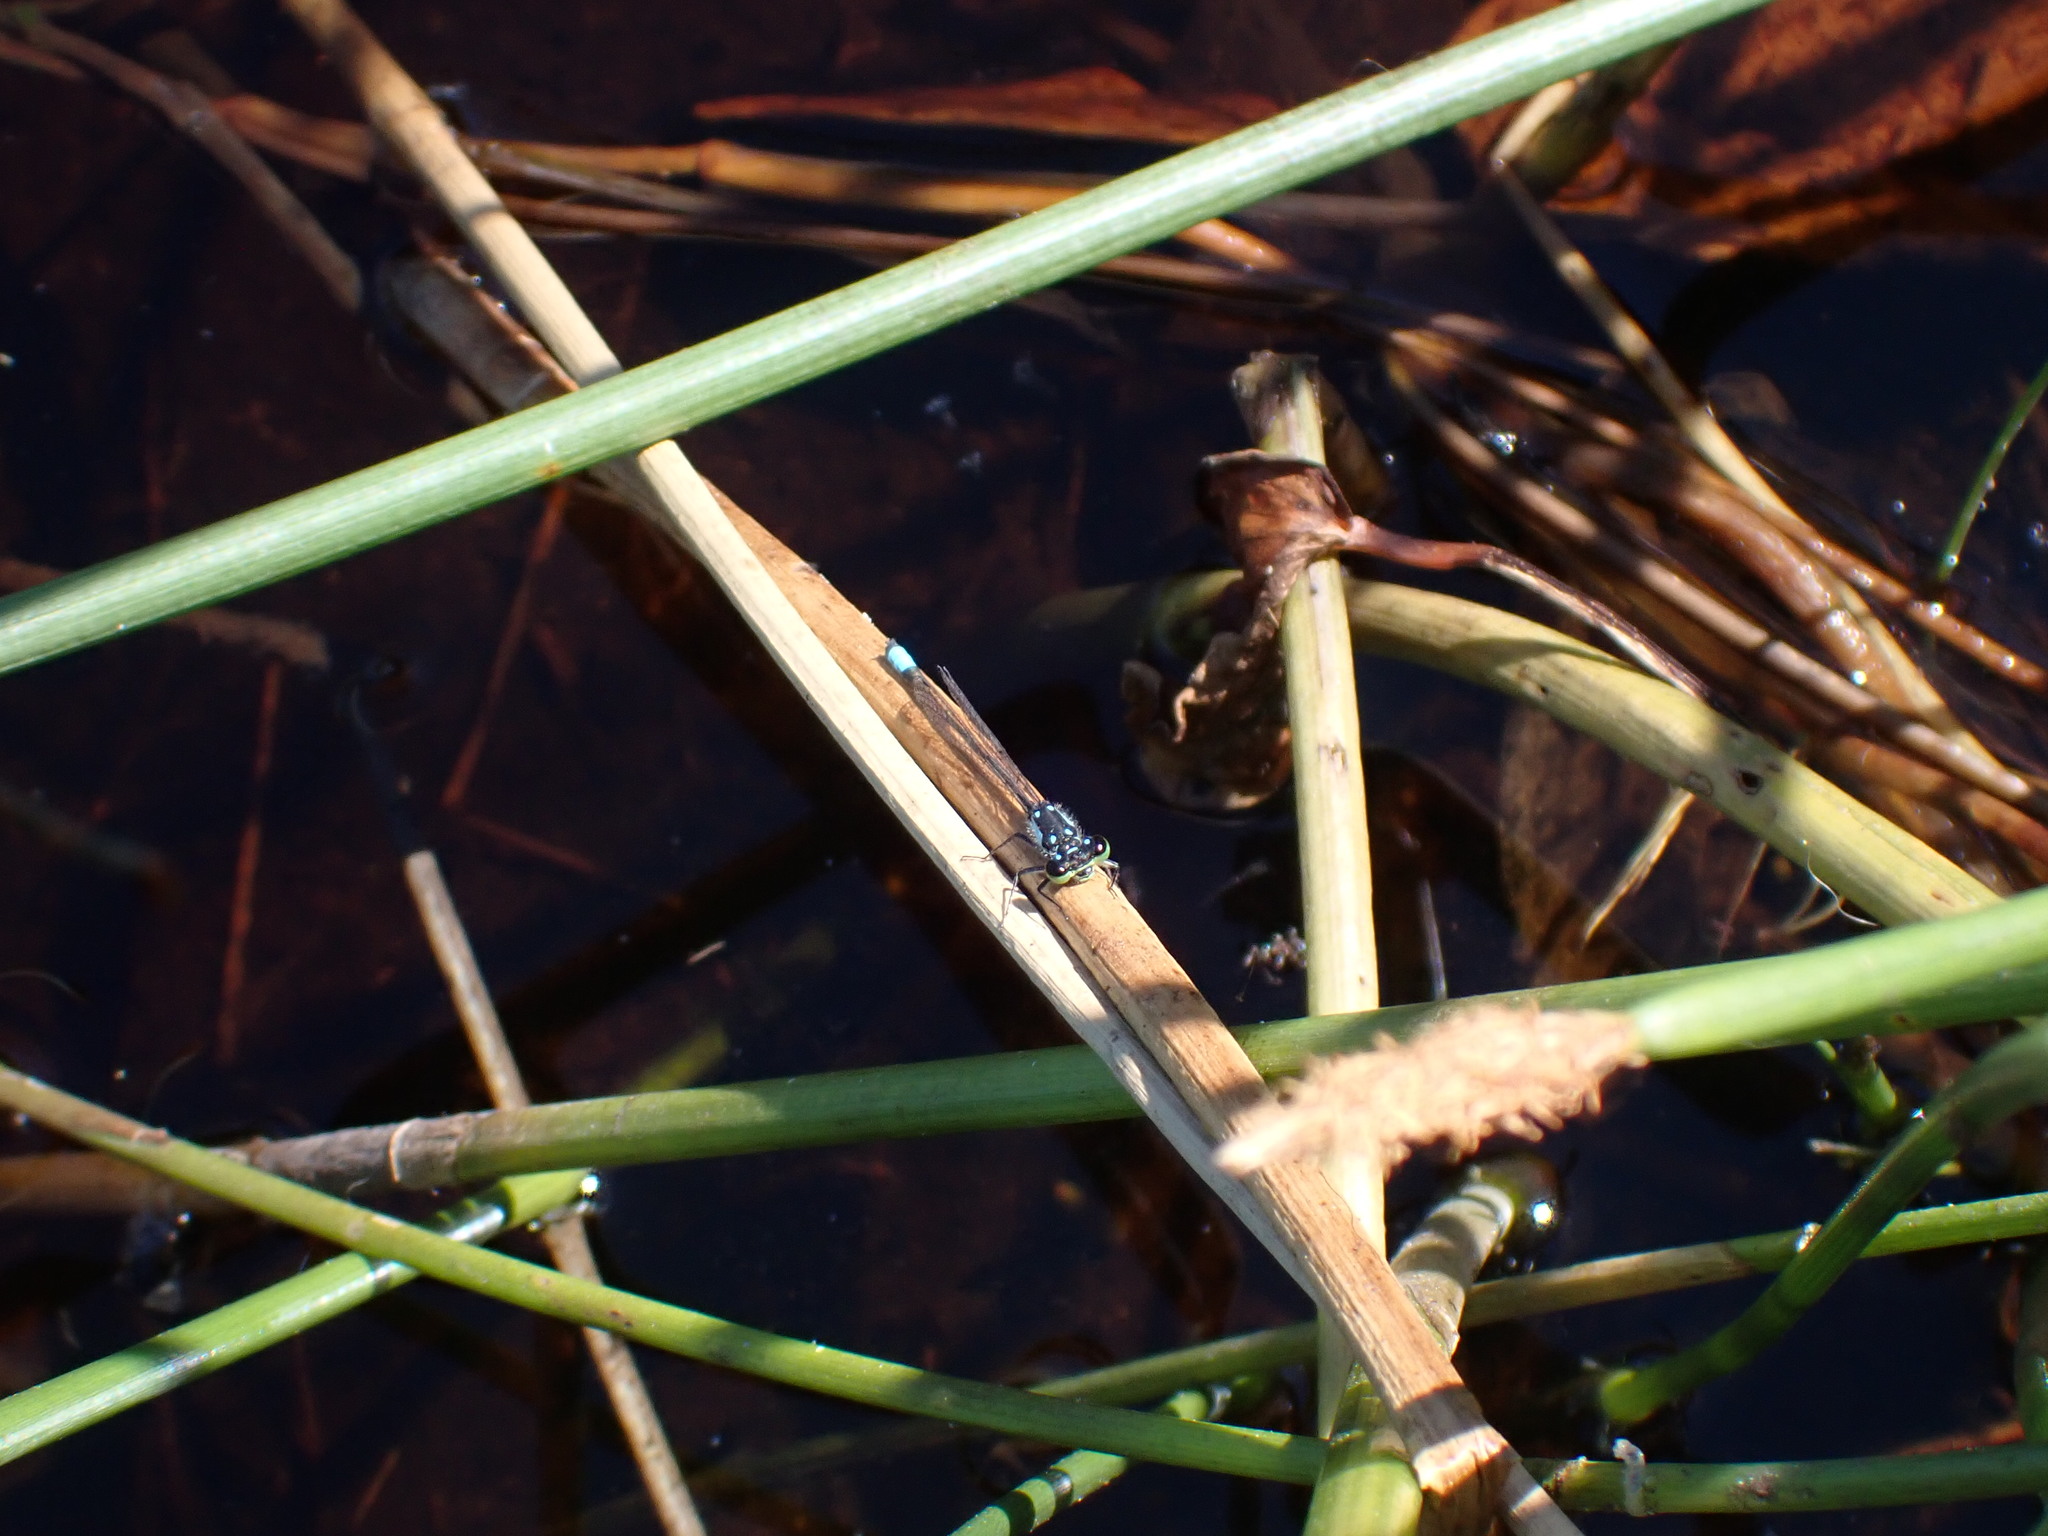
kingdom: Animalia
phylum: Arthropoda
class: Insecta
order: Odonata
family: Coenagrionidae
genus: Ischnura
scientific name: Ischnura cervula
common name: Pacific forktail
